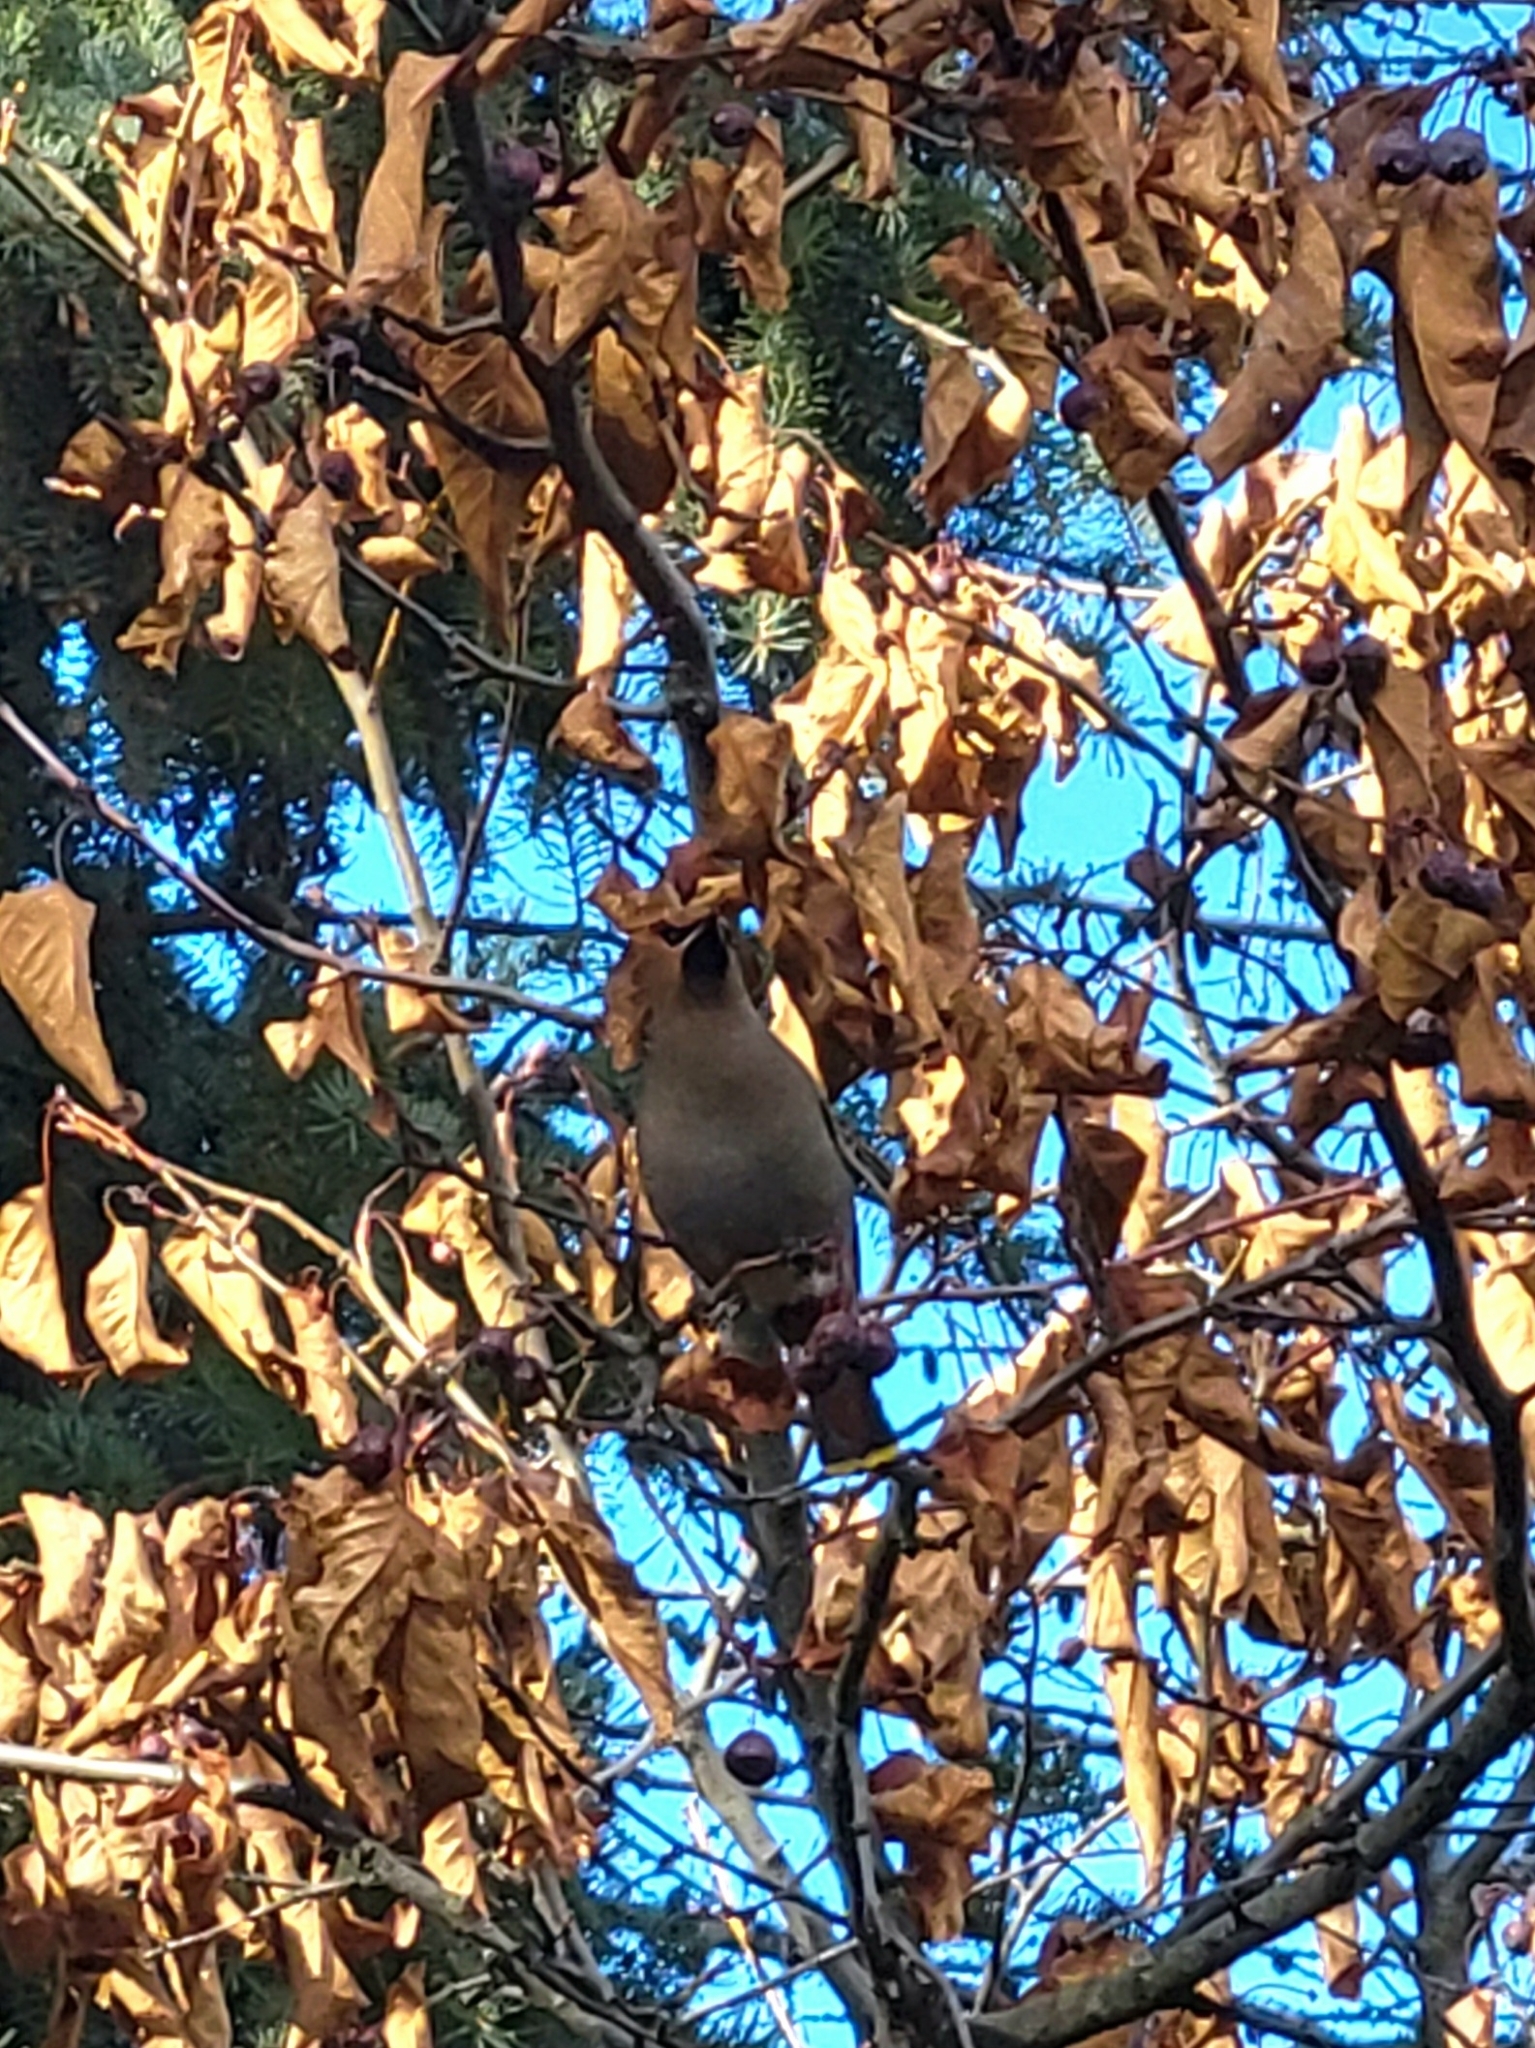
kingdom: Animalia
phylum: Chordata
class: Aves
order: Passeriformes
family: Bombycillidae
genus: Bombycilla
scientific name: Bombycilla garrulus
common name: Bohemian waxwing
